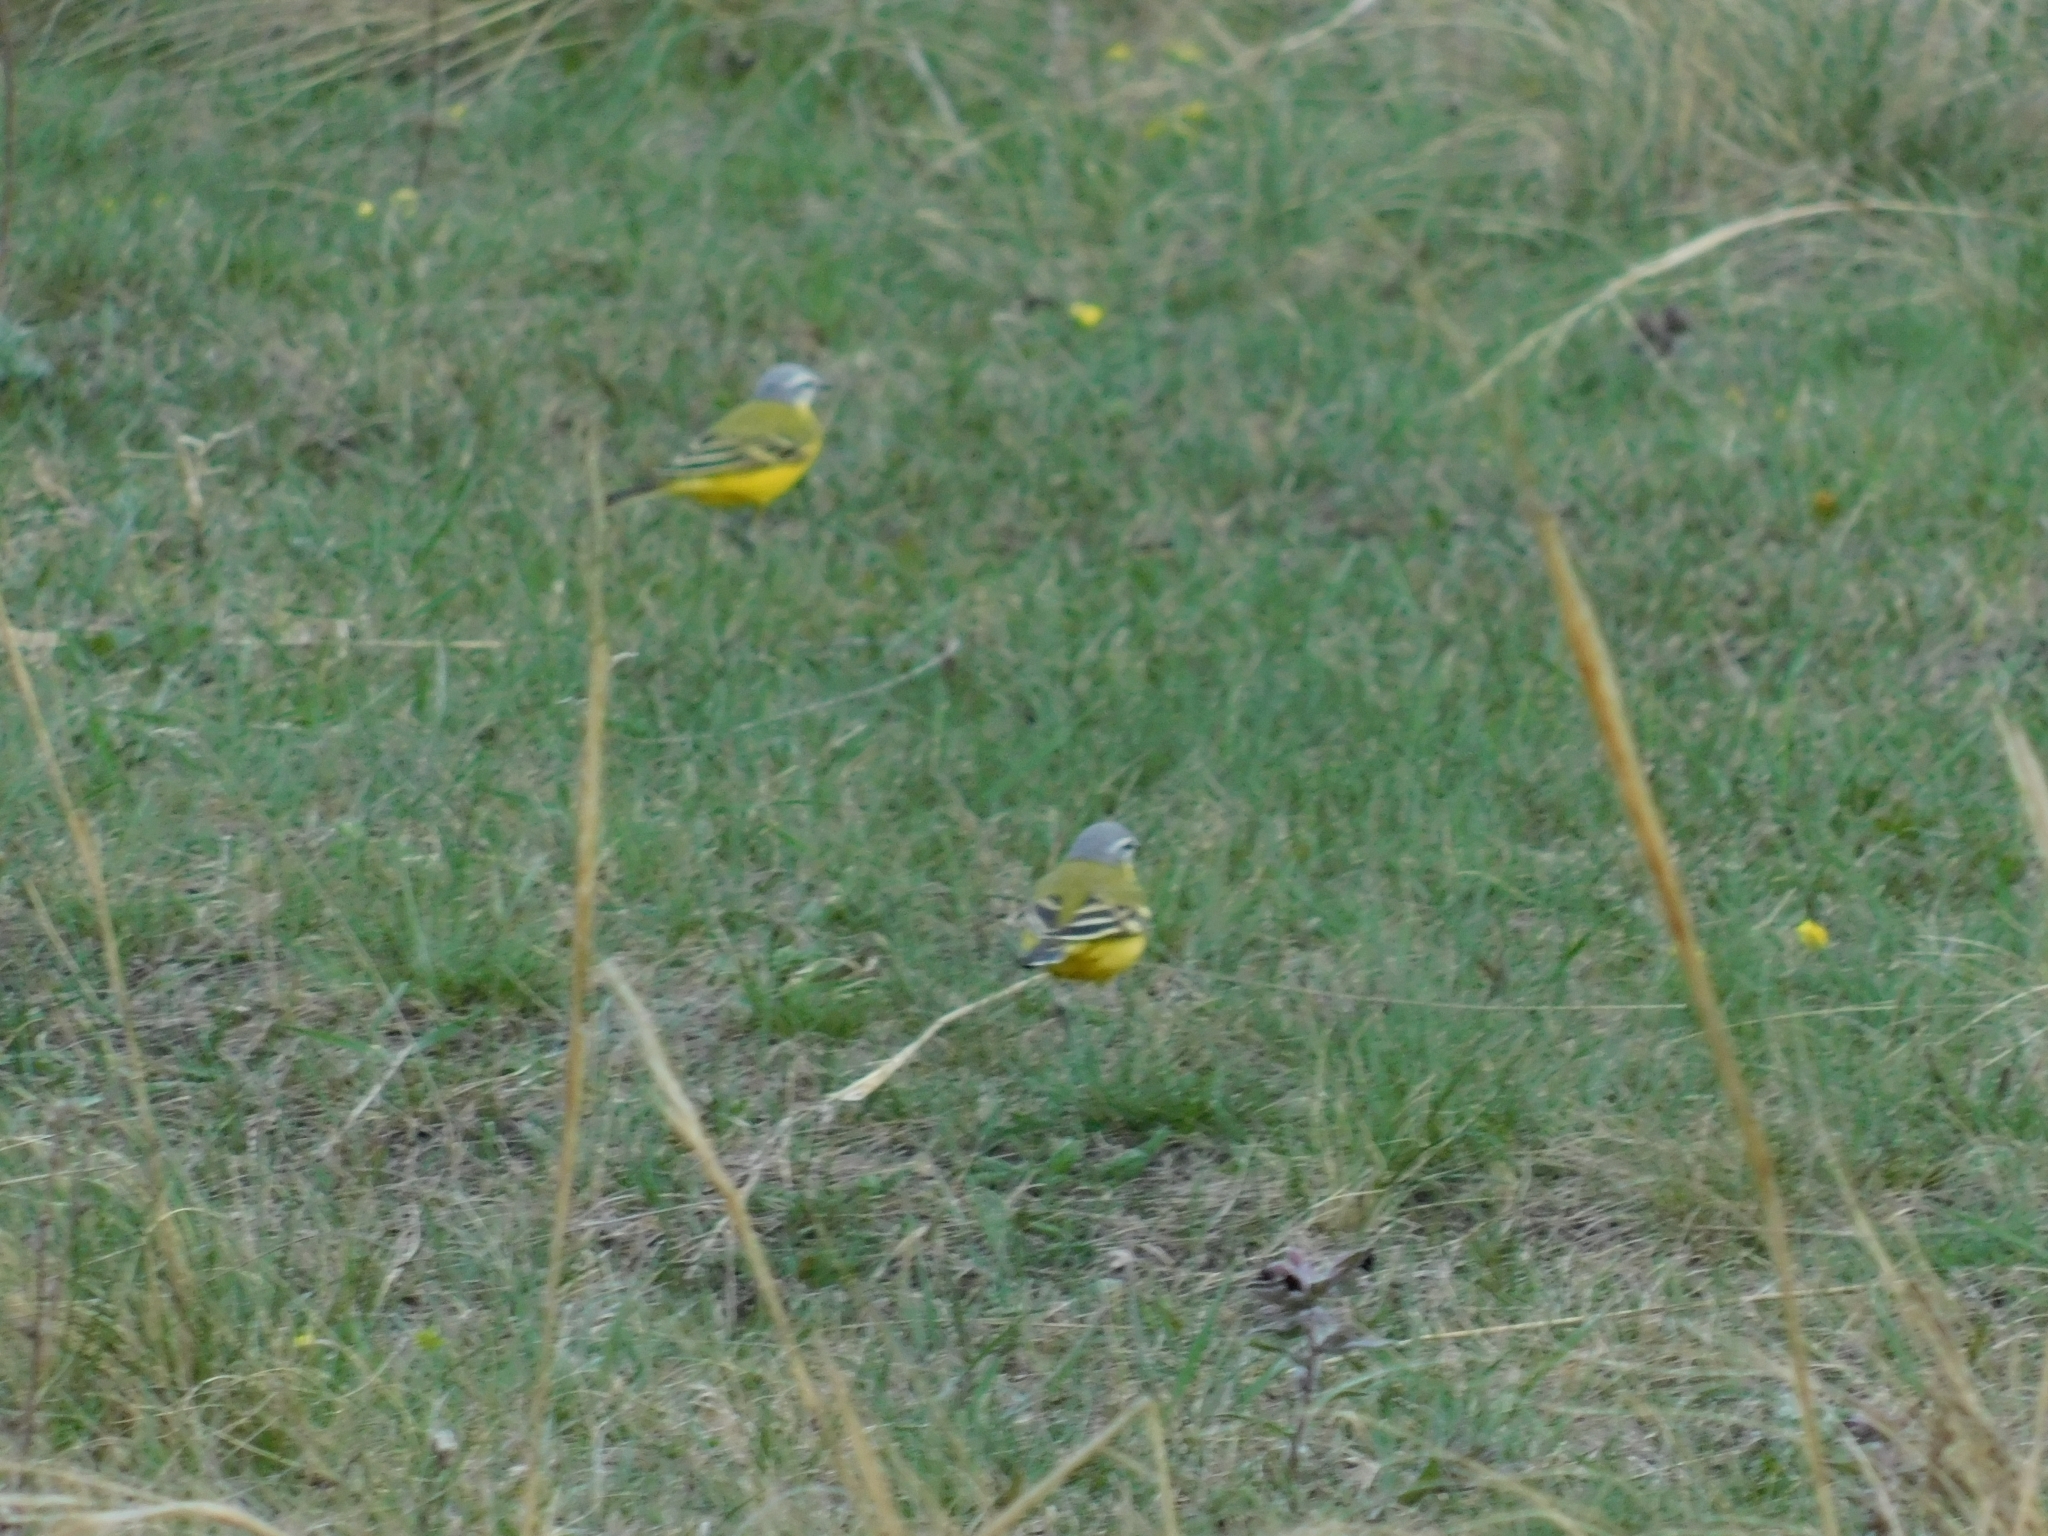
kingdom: Animalia
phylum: Chordata
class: Aves
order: Passeriformes
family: Motacillidae
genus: Motacilla
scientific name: Motacilla flava
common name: Western yellow wagtail
